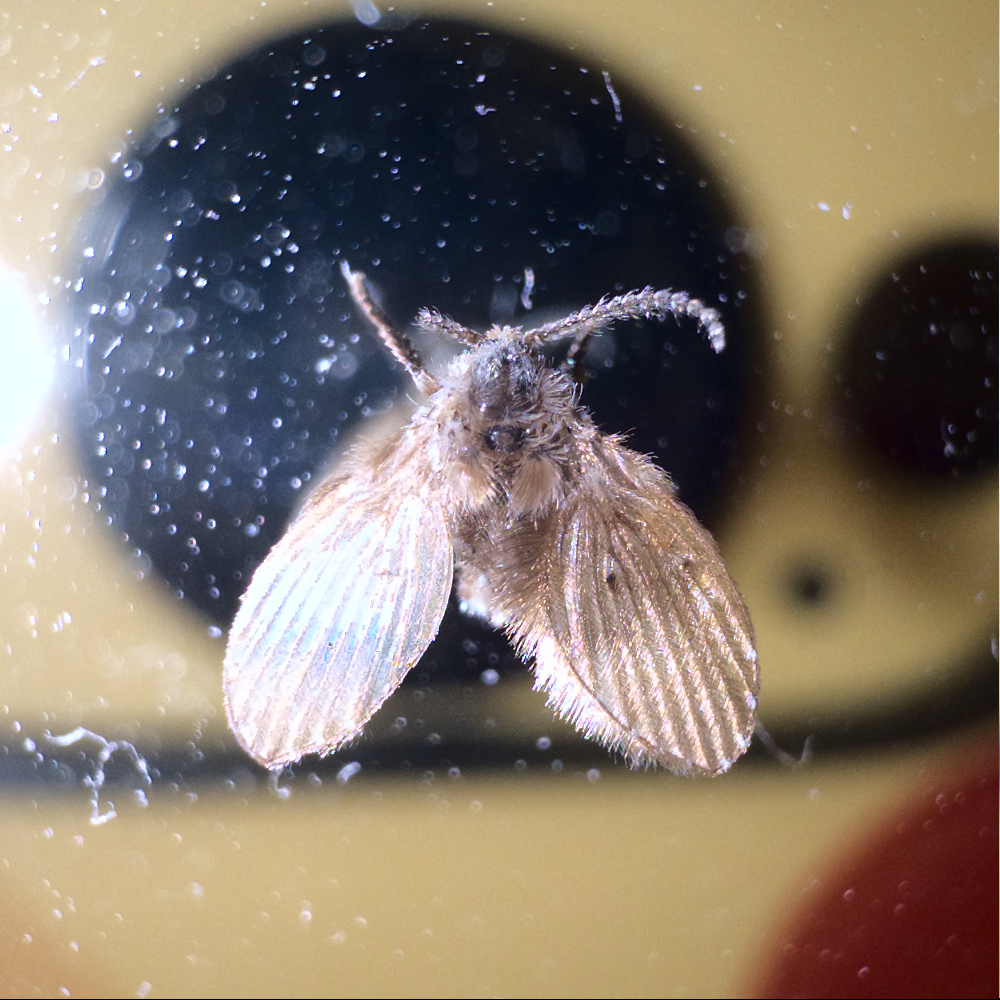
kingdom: Animalia
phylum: Arthropoda
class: Insecta
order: Diptera
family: Psychodidae
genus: Clogmia
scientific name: Clogmia albipunctatus
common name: White-spotted moth fly
